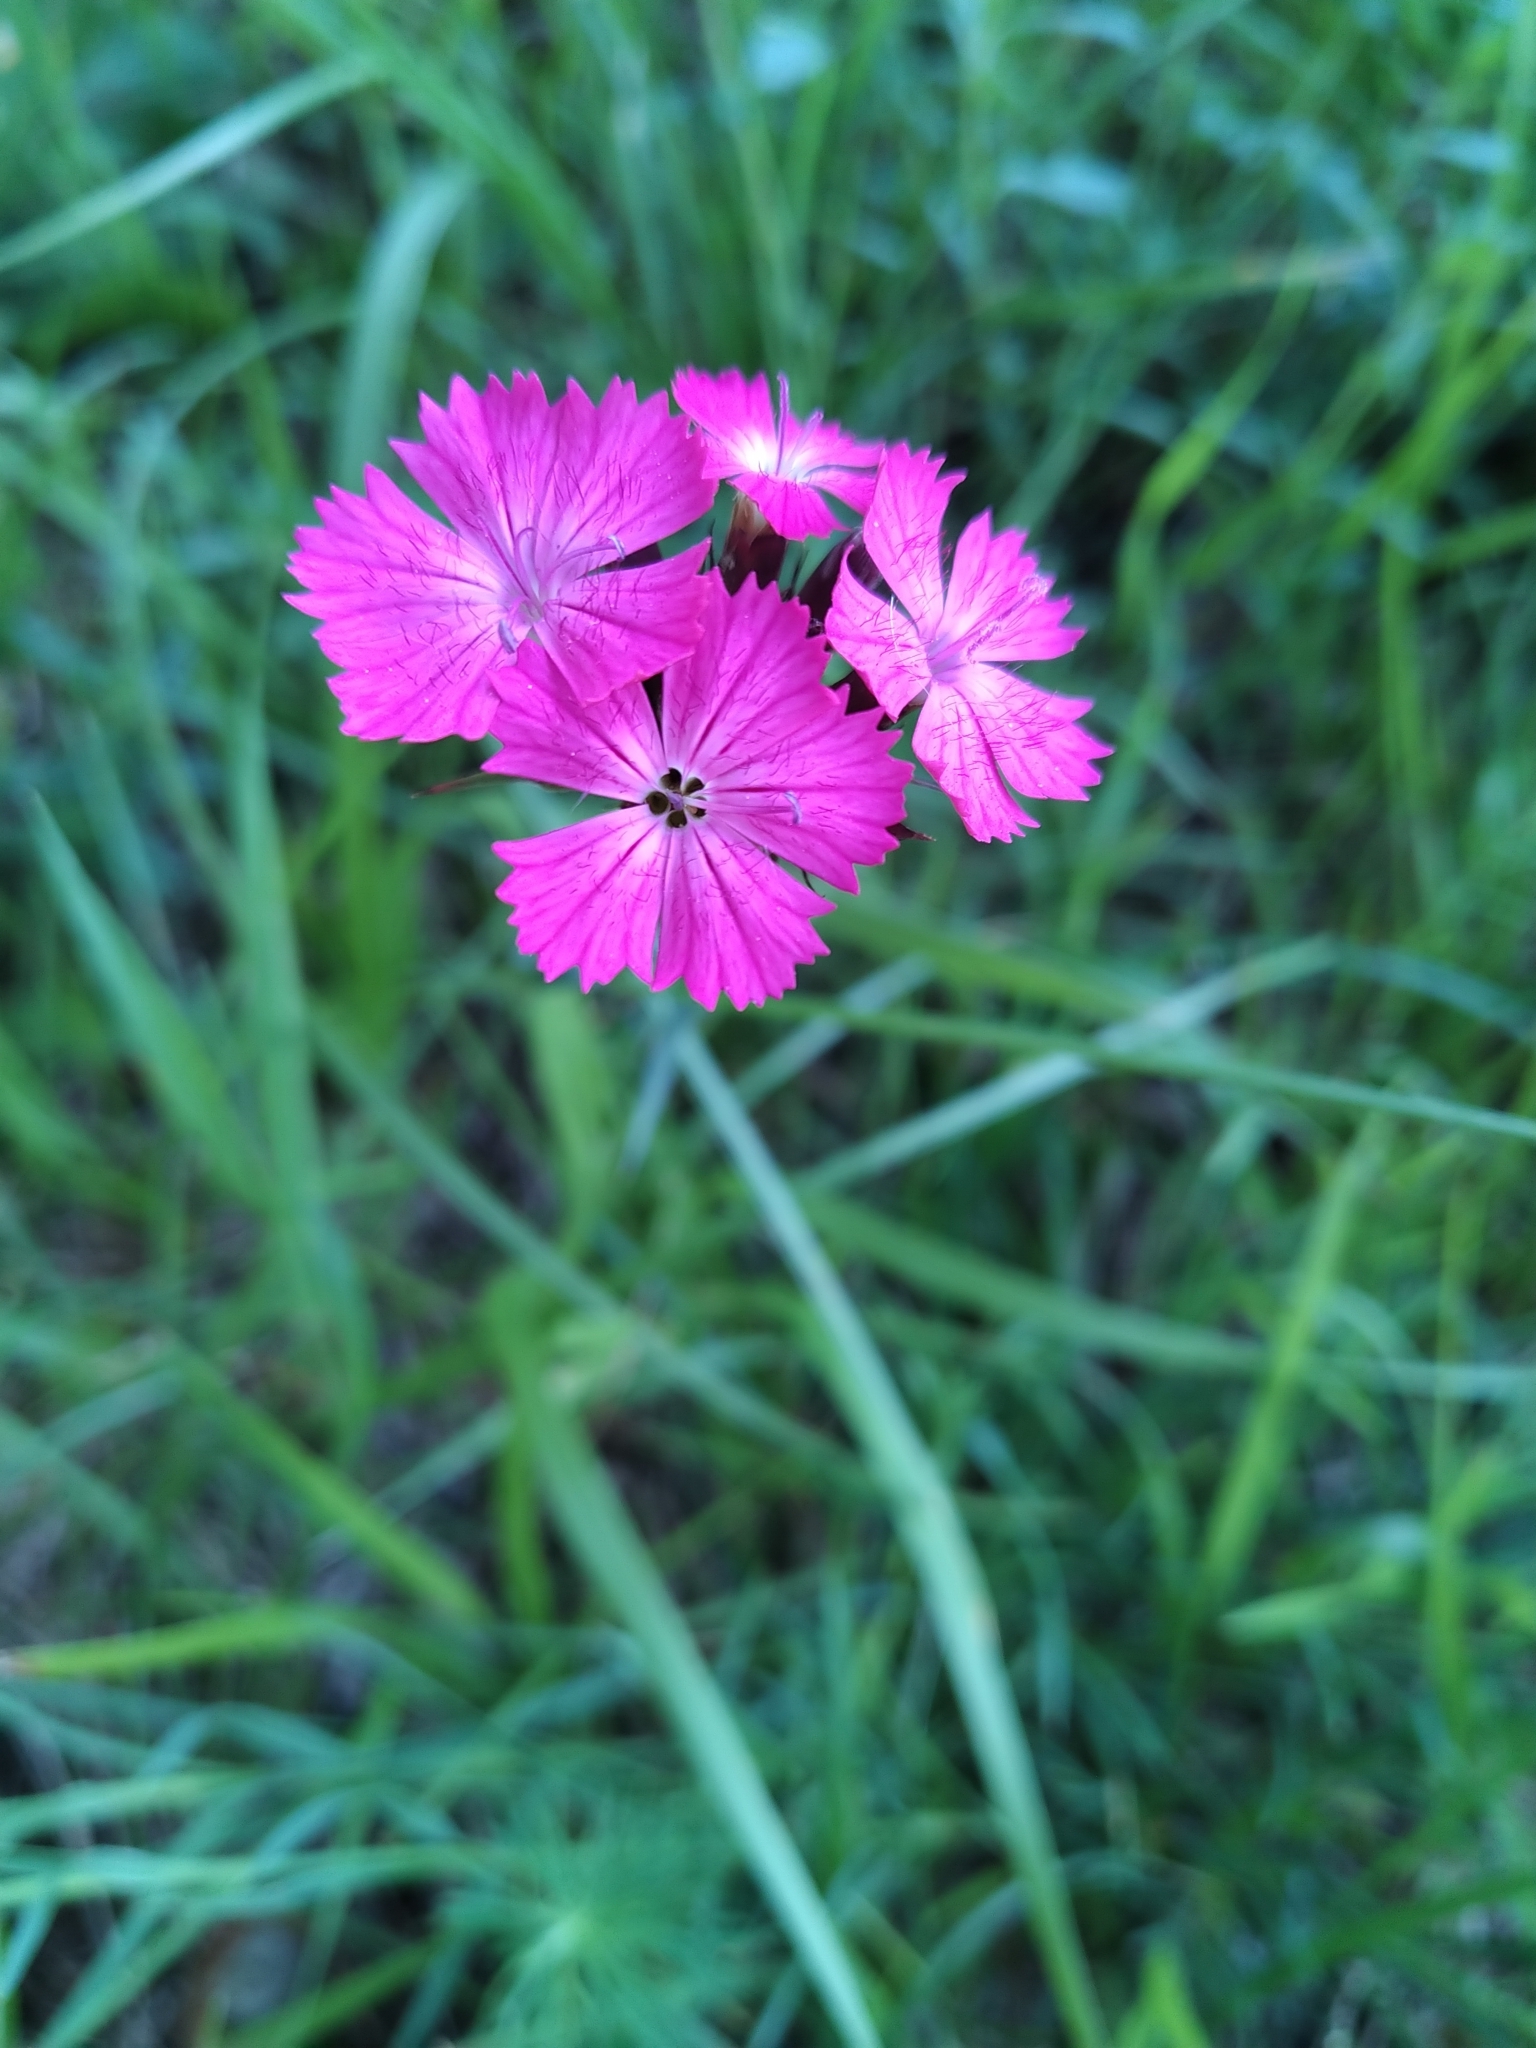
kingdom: Plantae
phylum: Tracheophyta
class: Magnoliopsida
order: Caryophyllales
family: Caryophyllaceae
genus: Dianthus
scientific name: Dianthus carthusianorum
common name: Carthusian pink
